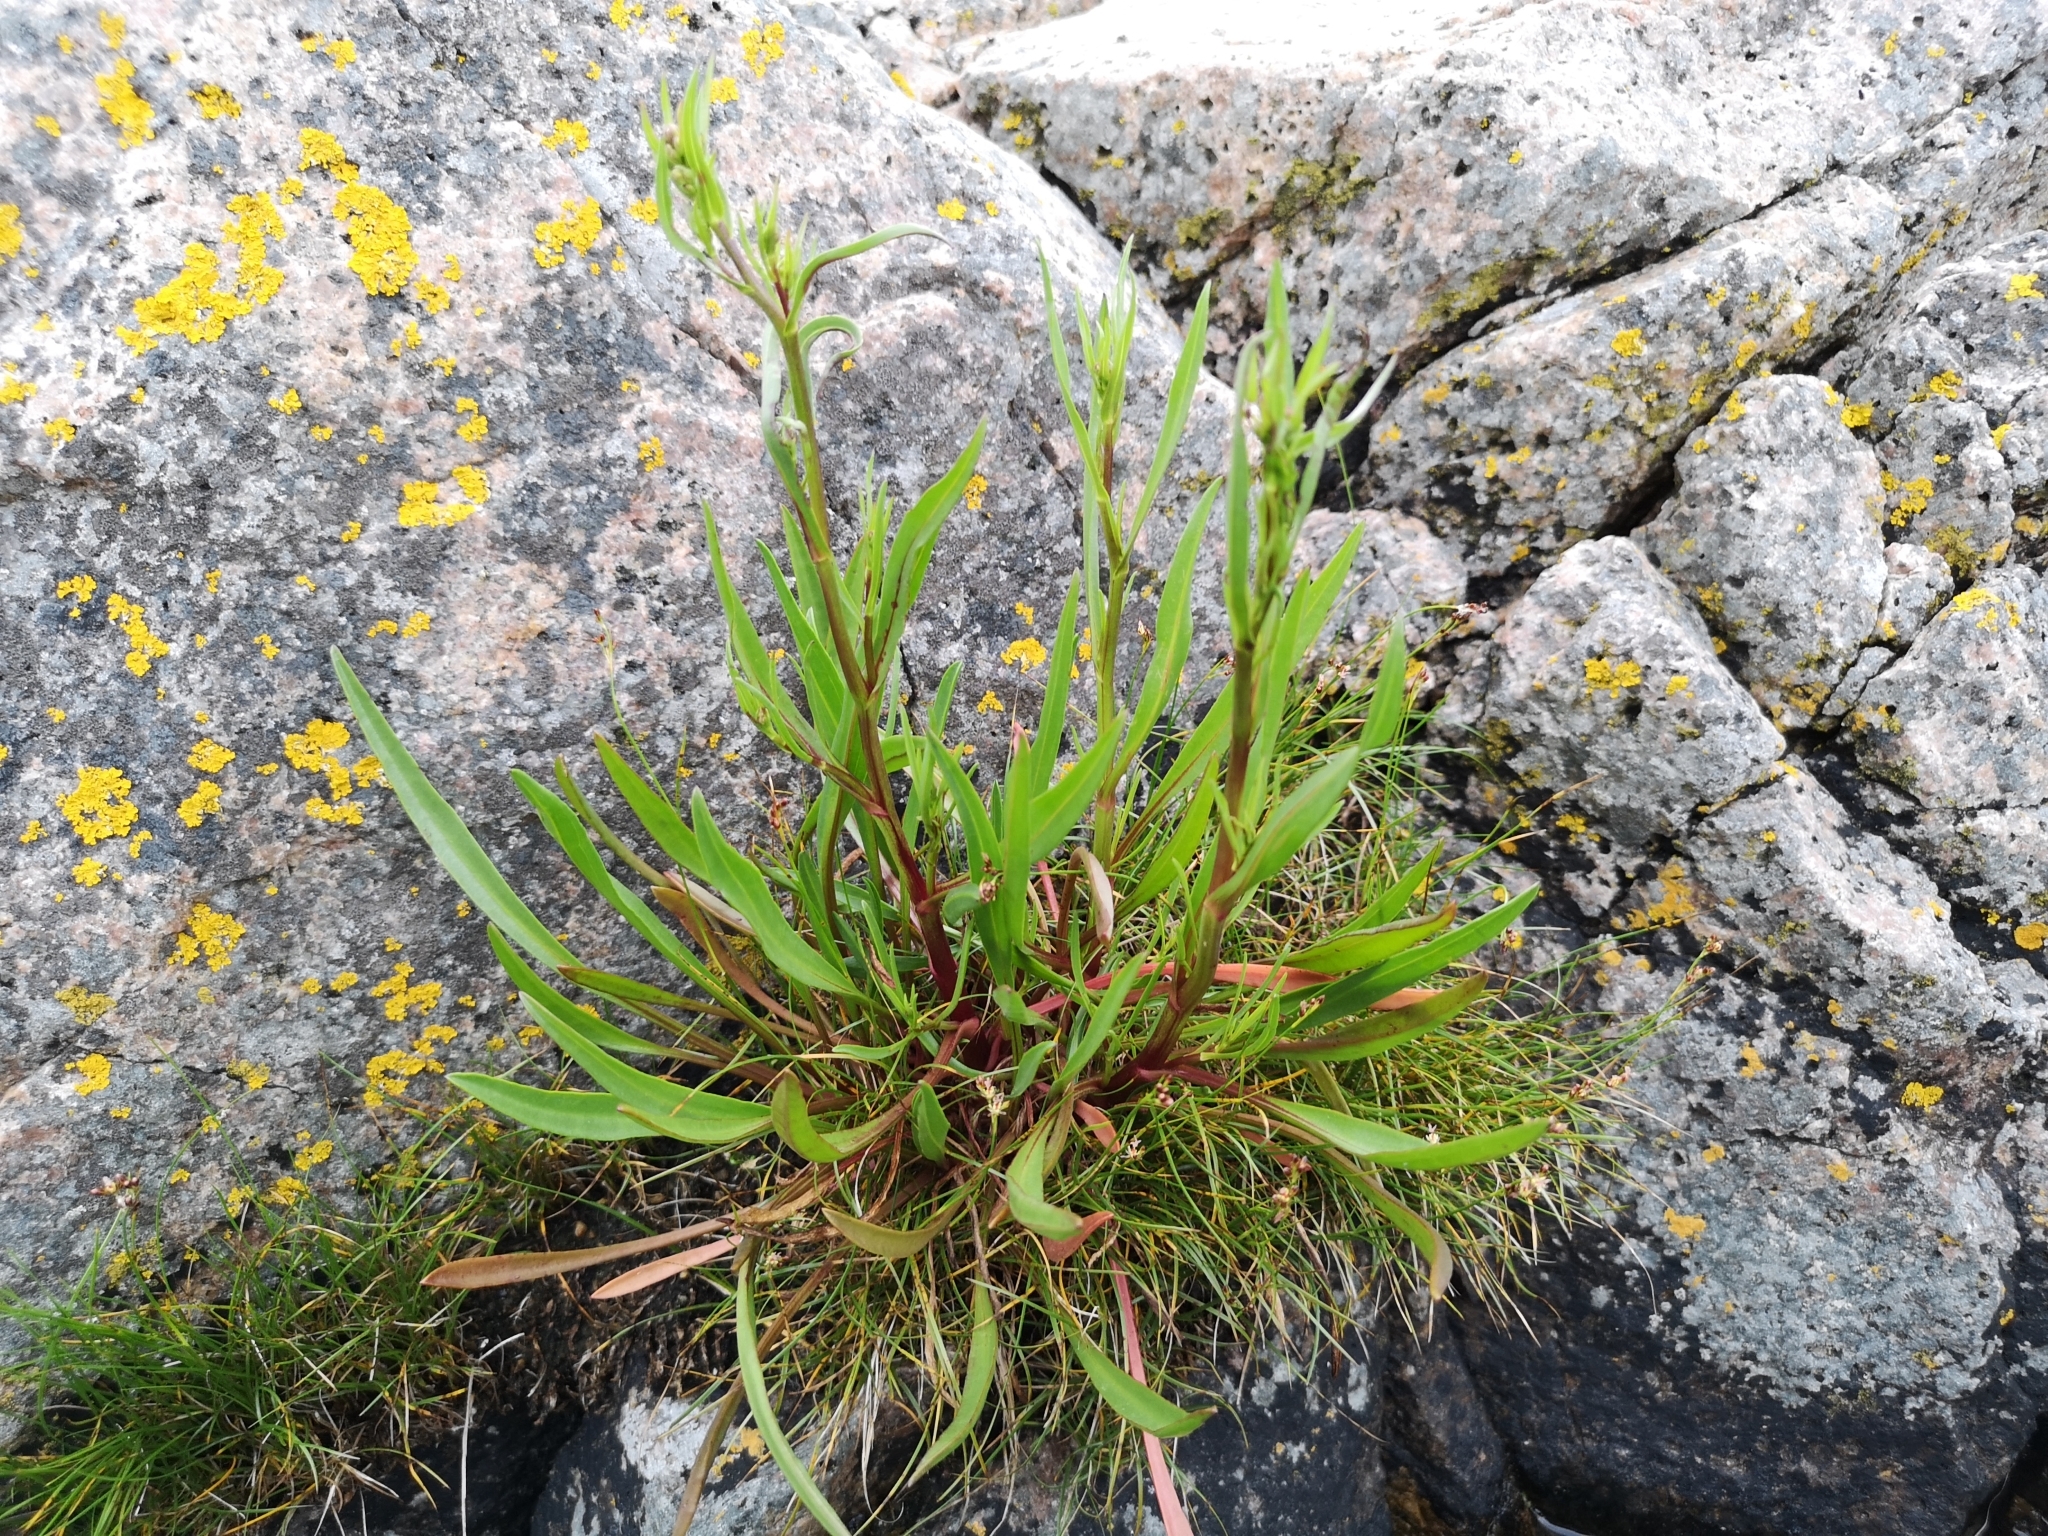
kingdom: Plantae
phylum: Tracheophyta
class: Magnoliopsida
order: Asterales
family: Asteraceae
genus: Tripolium
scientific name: Tripolium pannonicum
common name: Sea aster
